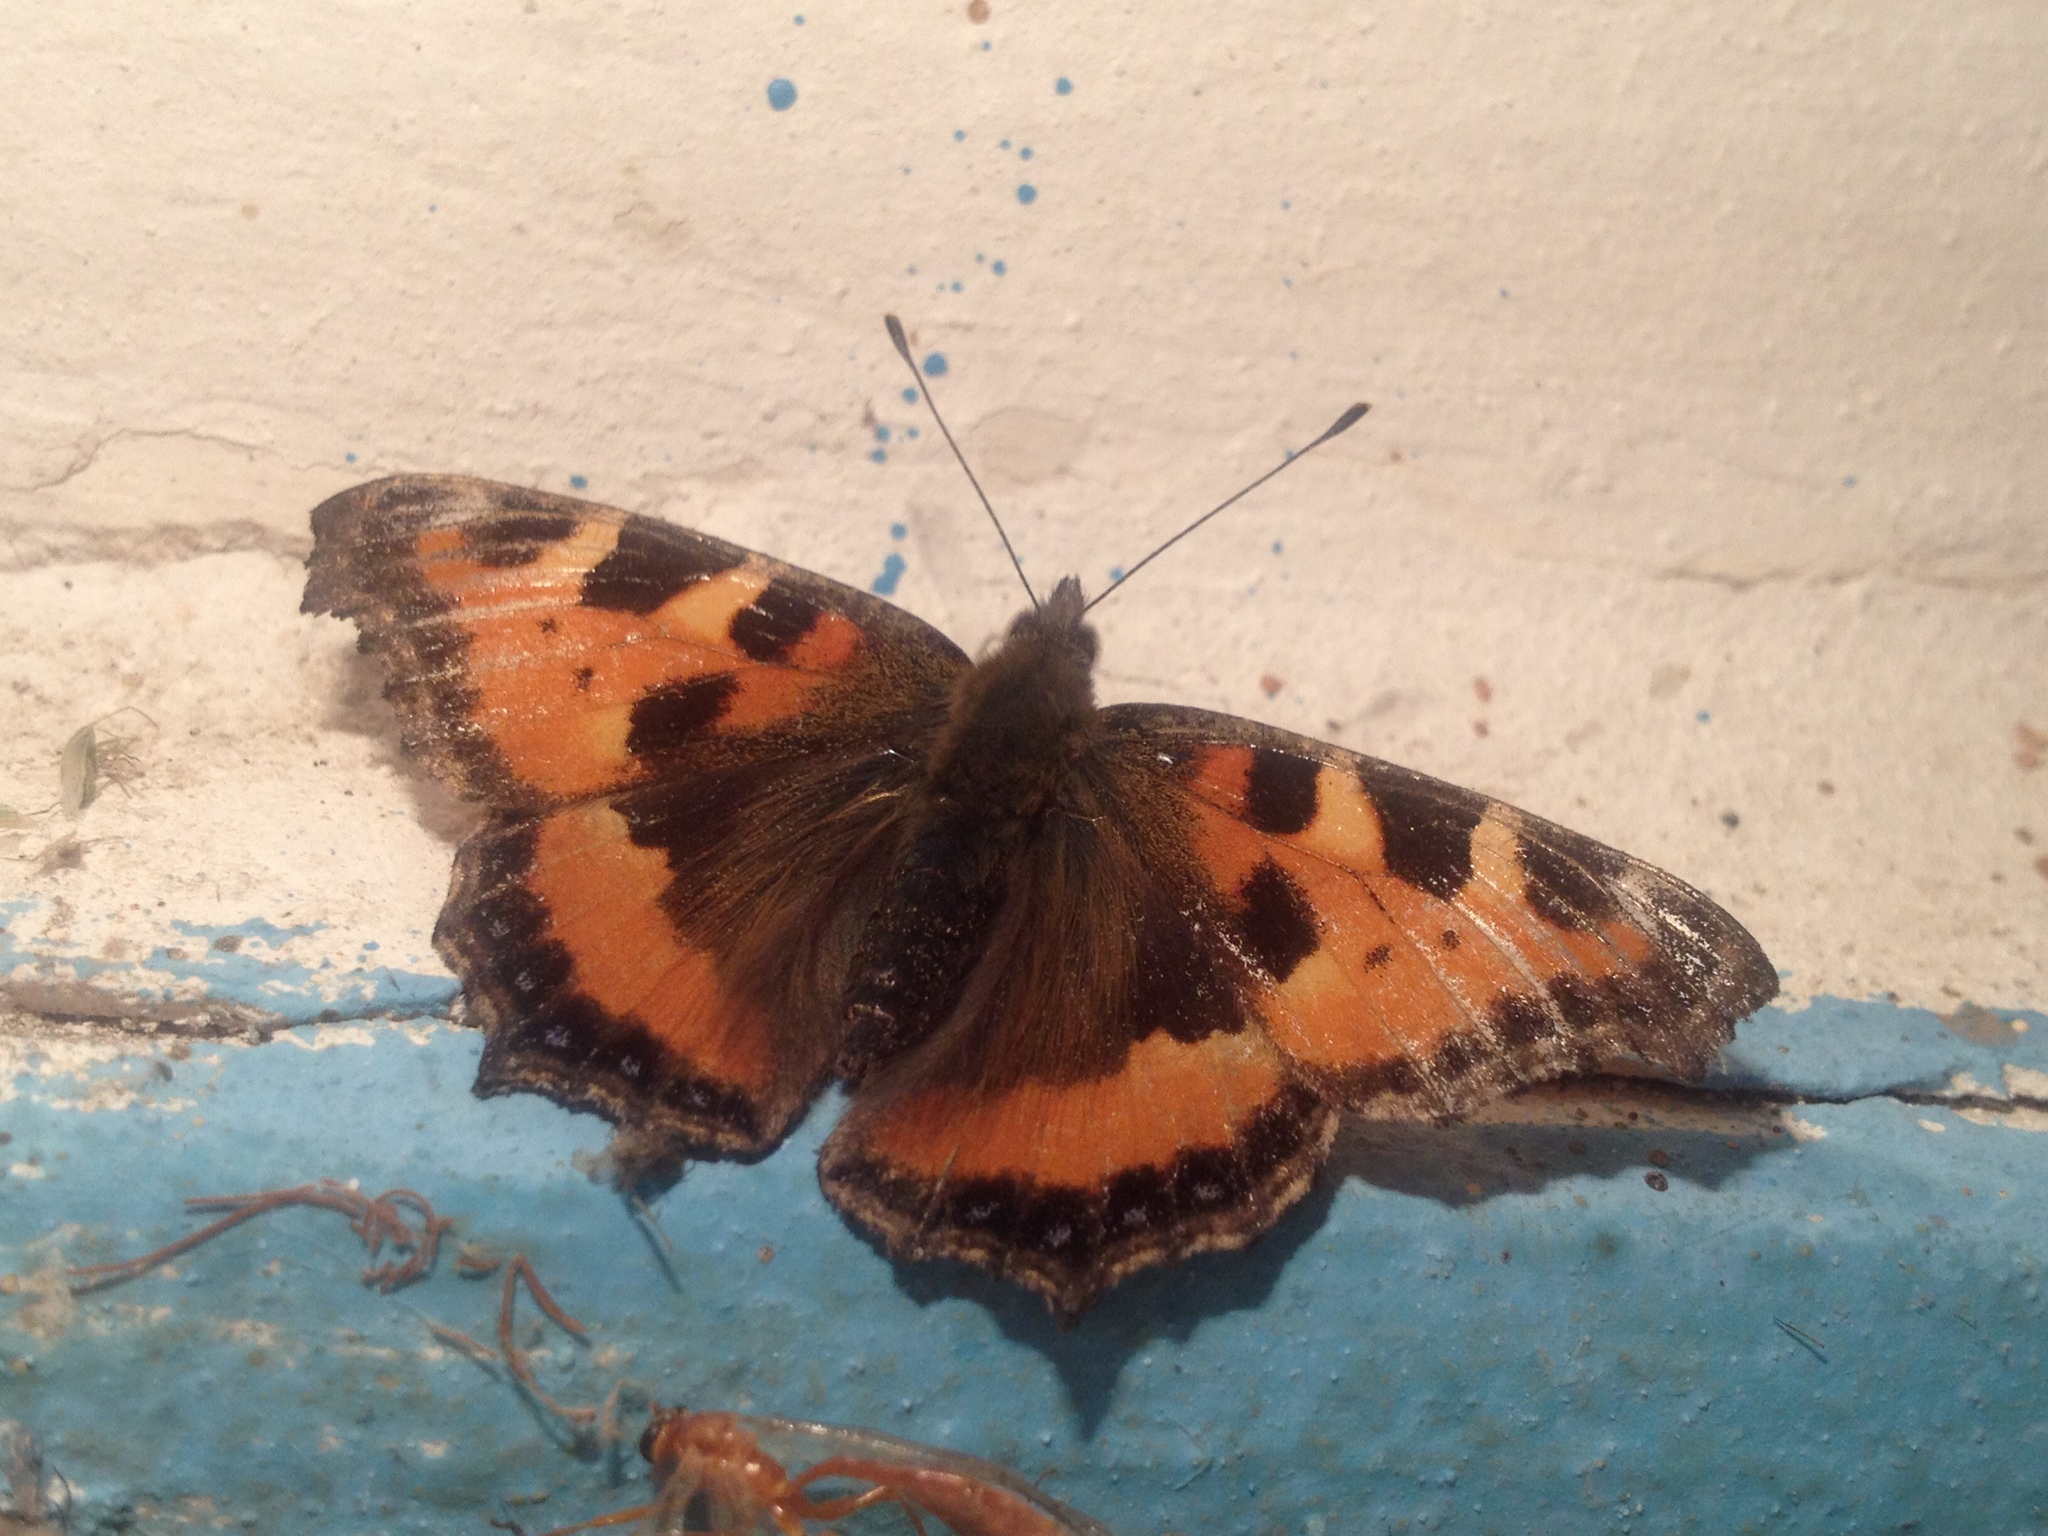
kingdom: Animalia
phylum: Arthropoda
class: Insecta
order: Lepidoptera
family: Nymphalidae
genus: Aglais
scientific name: Aglais urticae
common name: Small tortoiseshell
